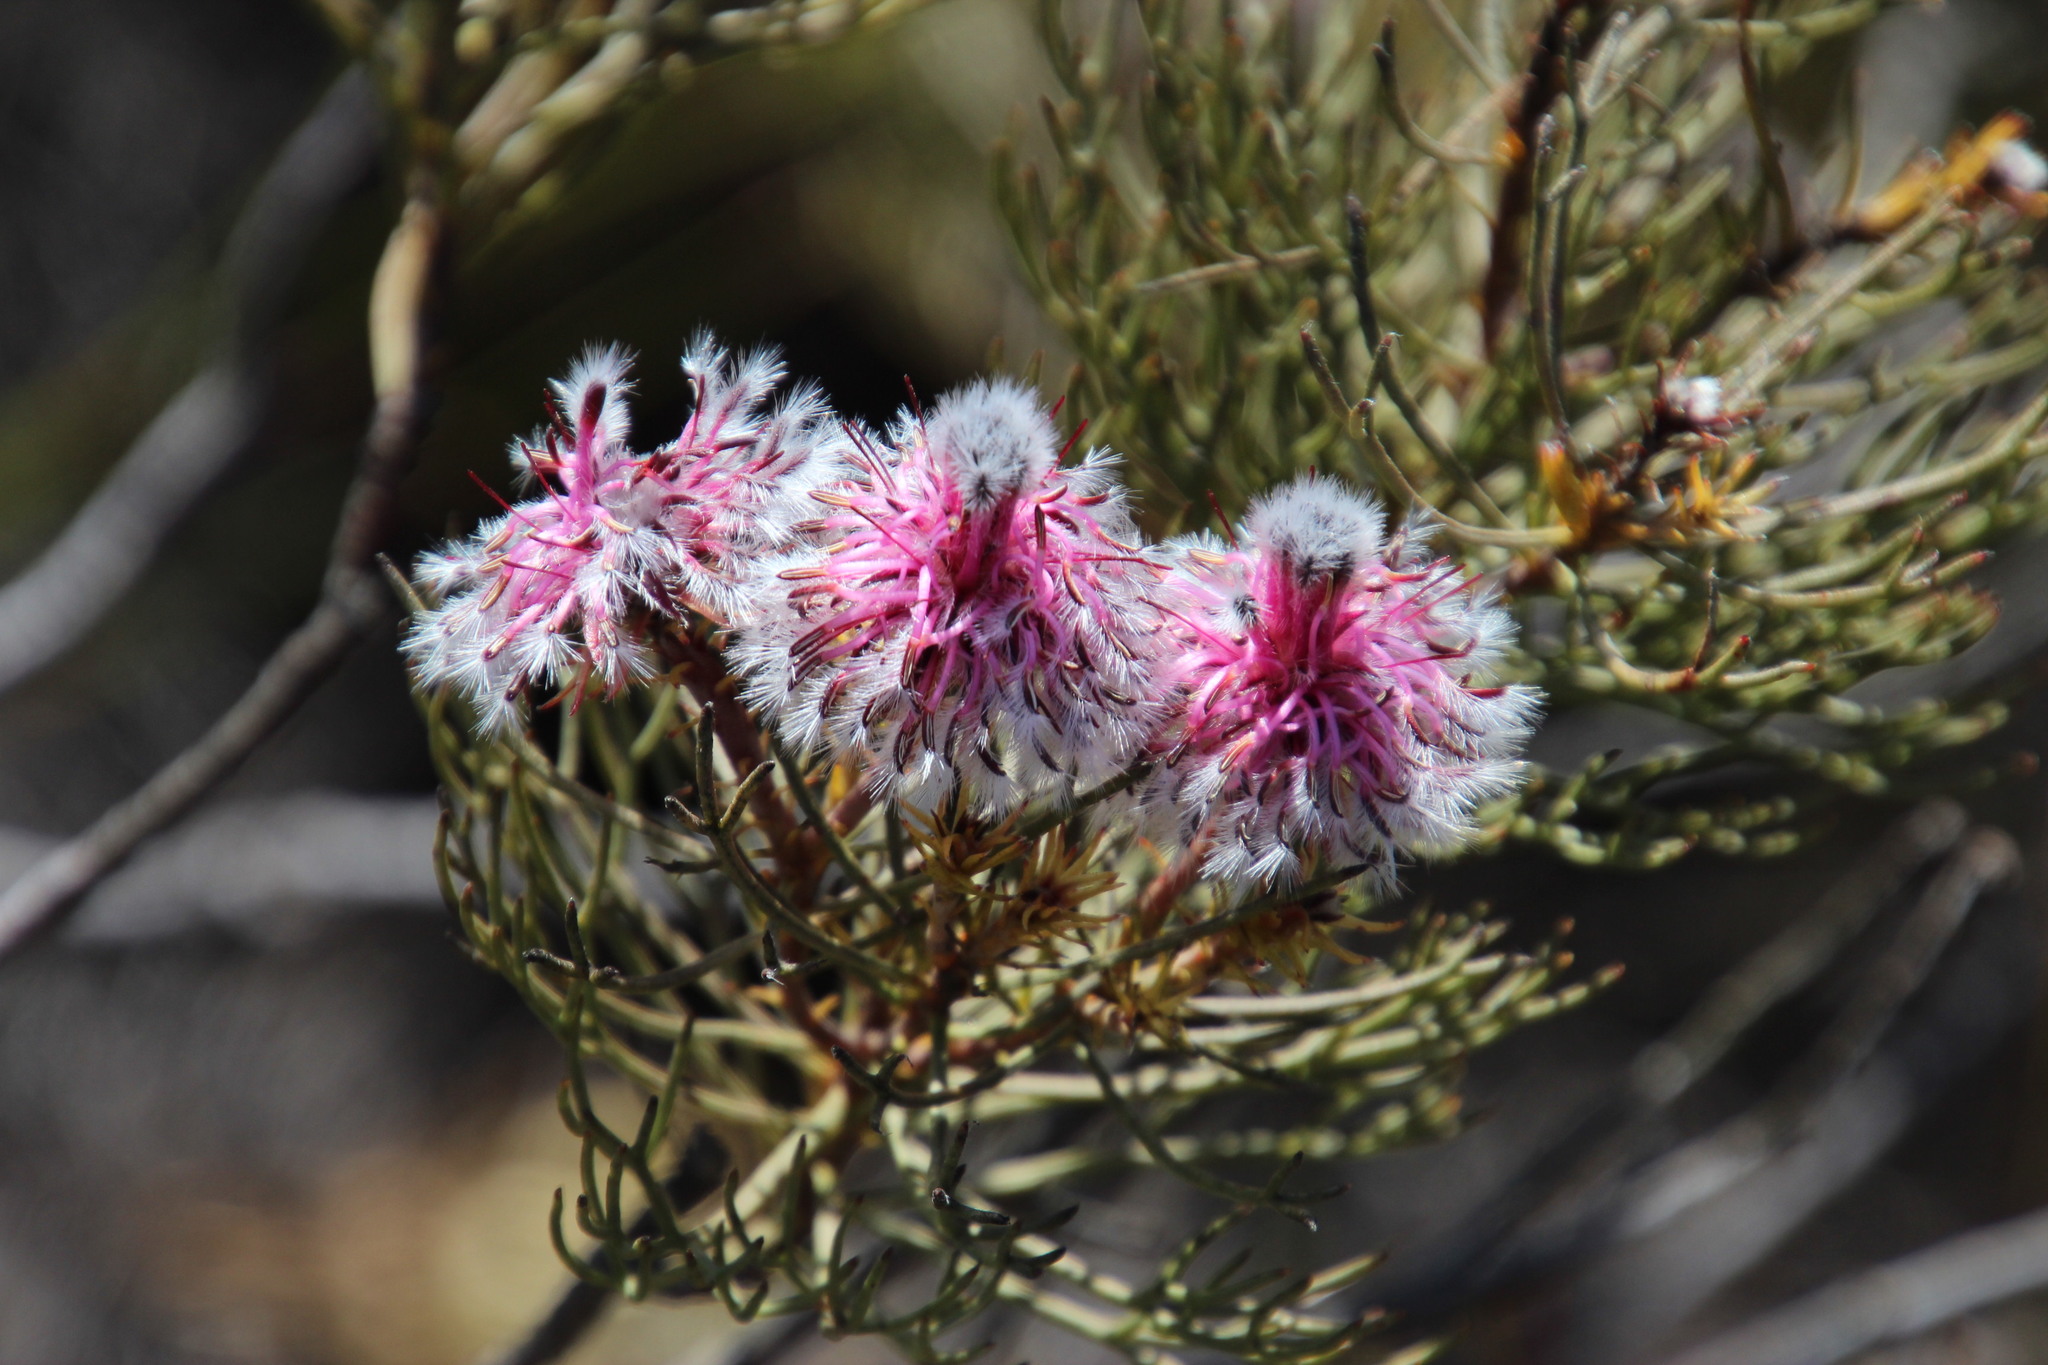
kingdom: Plantae
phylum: Tracheophyta
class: Magnoliopsida
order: Proteales
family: Proteaceae
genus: Serruria
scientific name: Serruria phylicoides
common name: Bearded spiderhead
